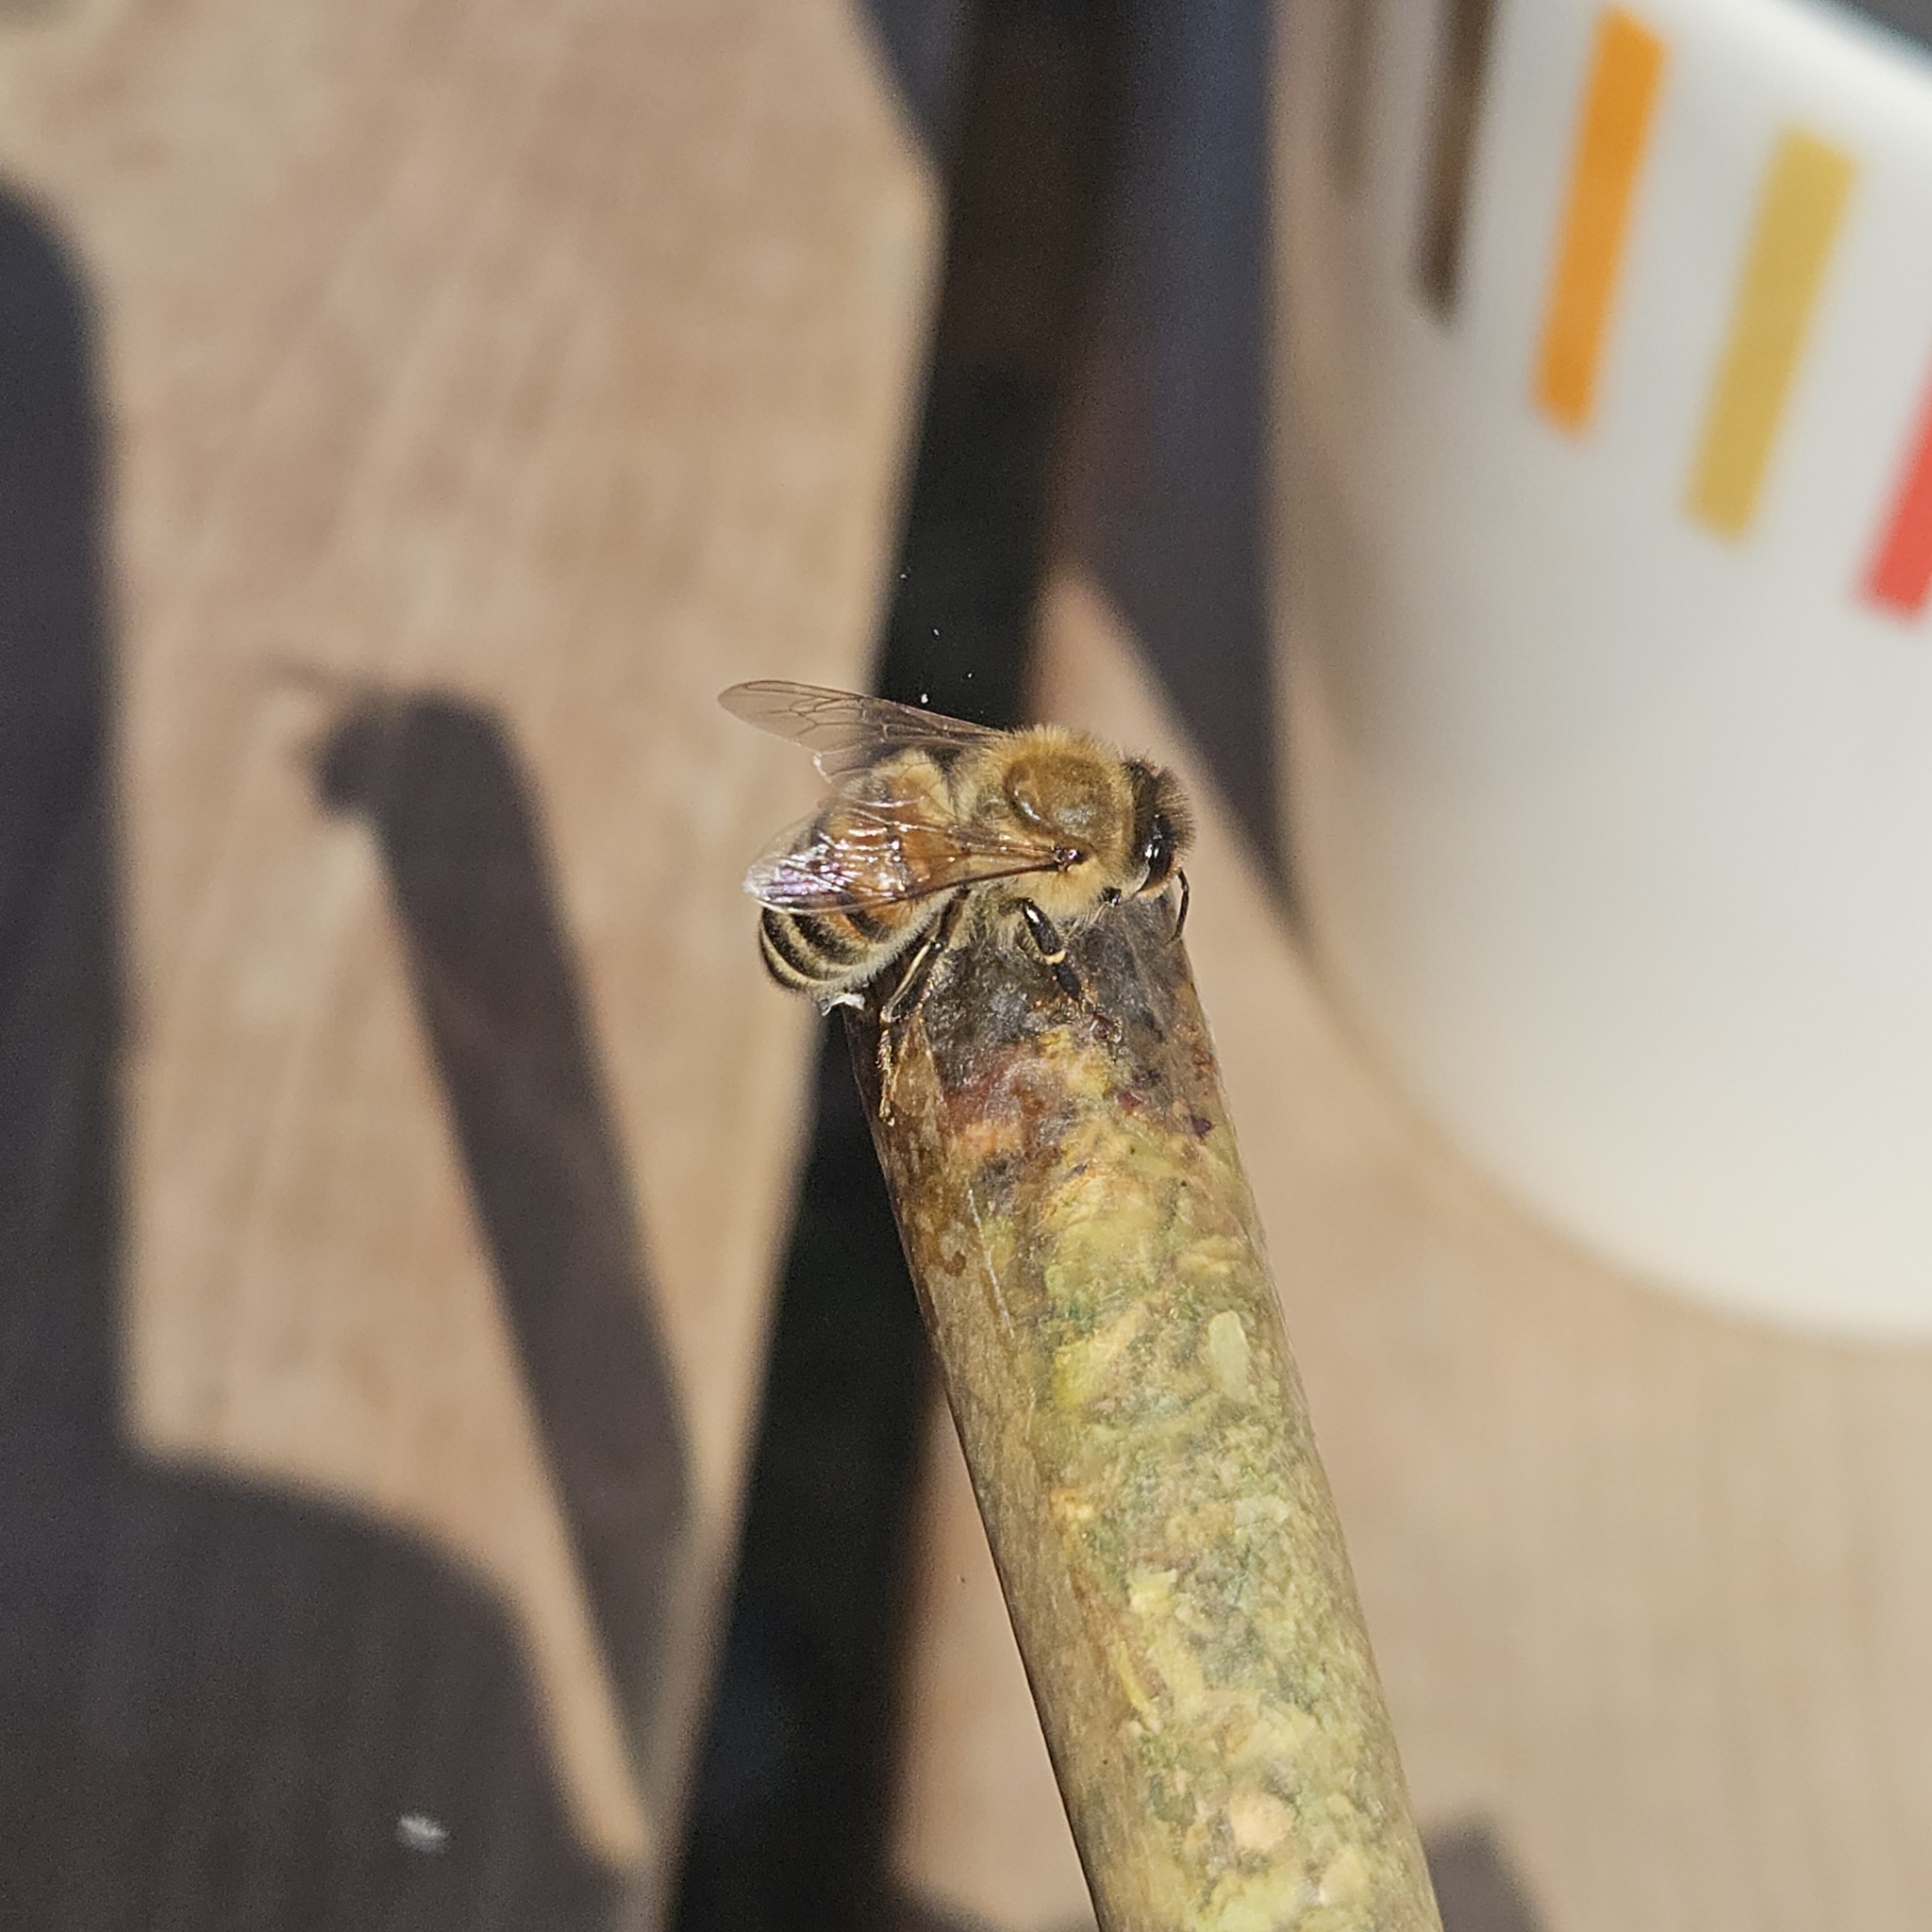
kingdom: Animalia
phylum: Arthropoda
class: Insecta
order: Hymenoptera
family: Apidae
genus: Apis
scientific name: Apis mellifera
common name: Honey bee
